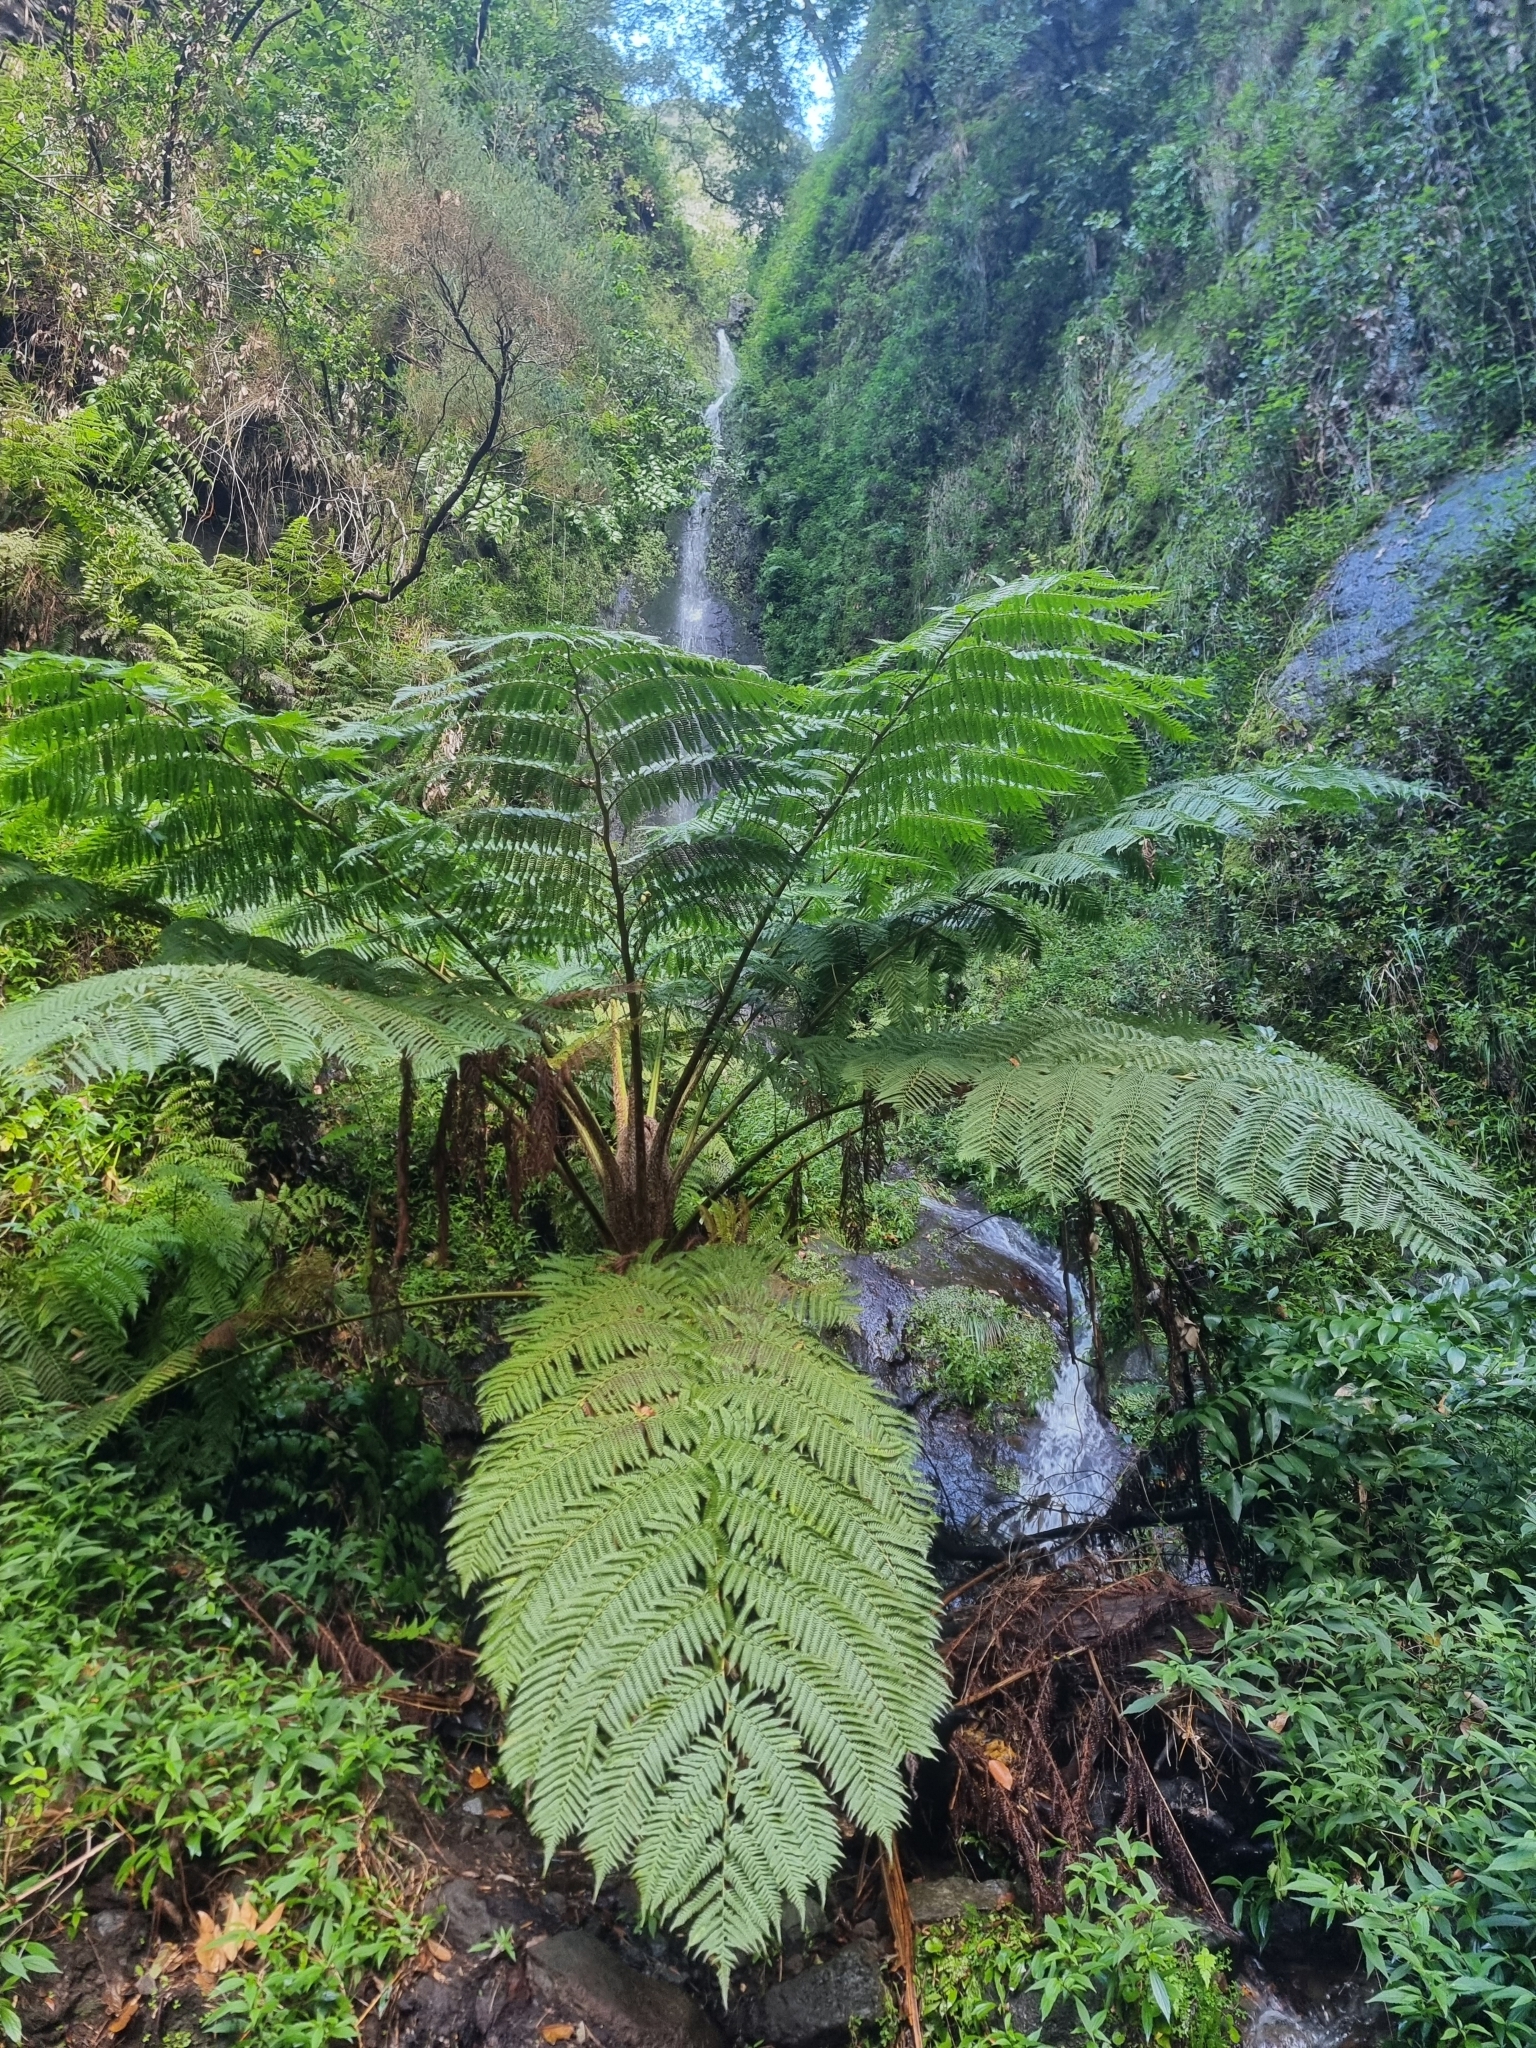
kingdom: Plantae
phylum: Tracheophyta
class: Polypodiopsida
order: Cyatheales
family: Cyatheaceae
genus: Sphaeropteris
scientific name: Sphaeropteris cooperi
